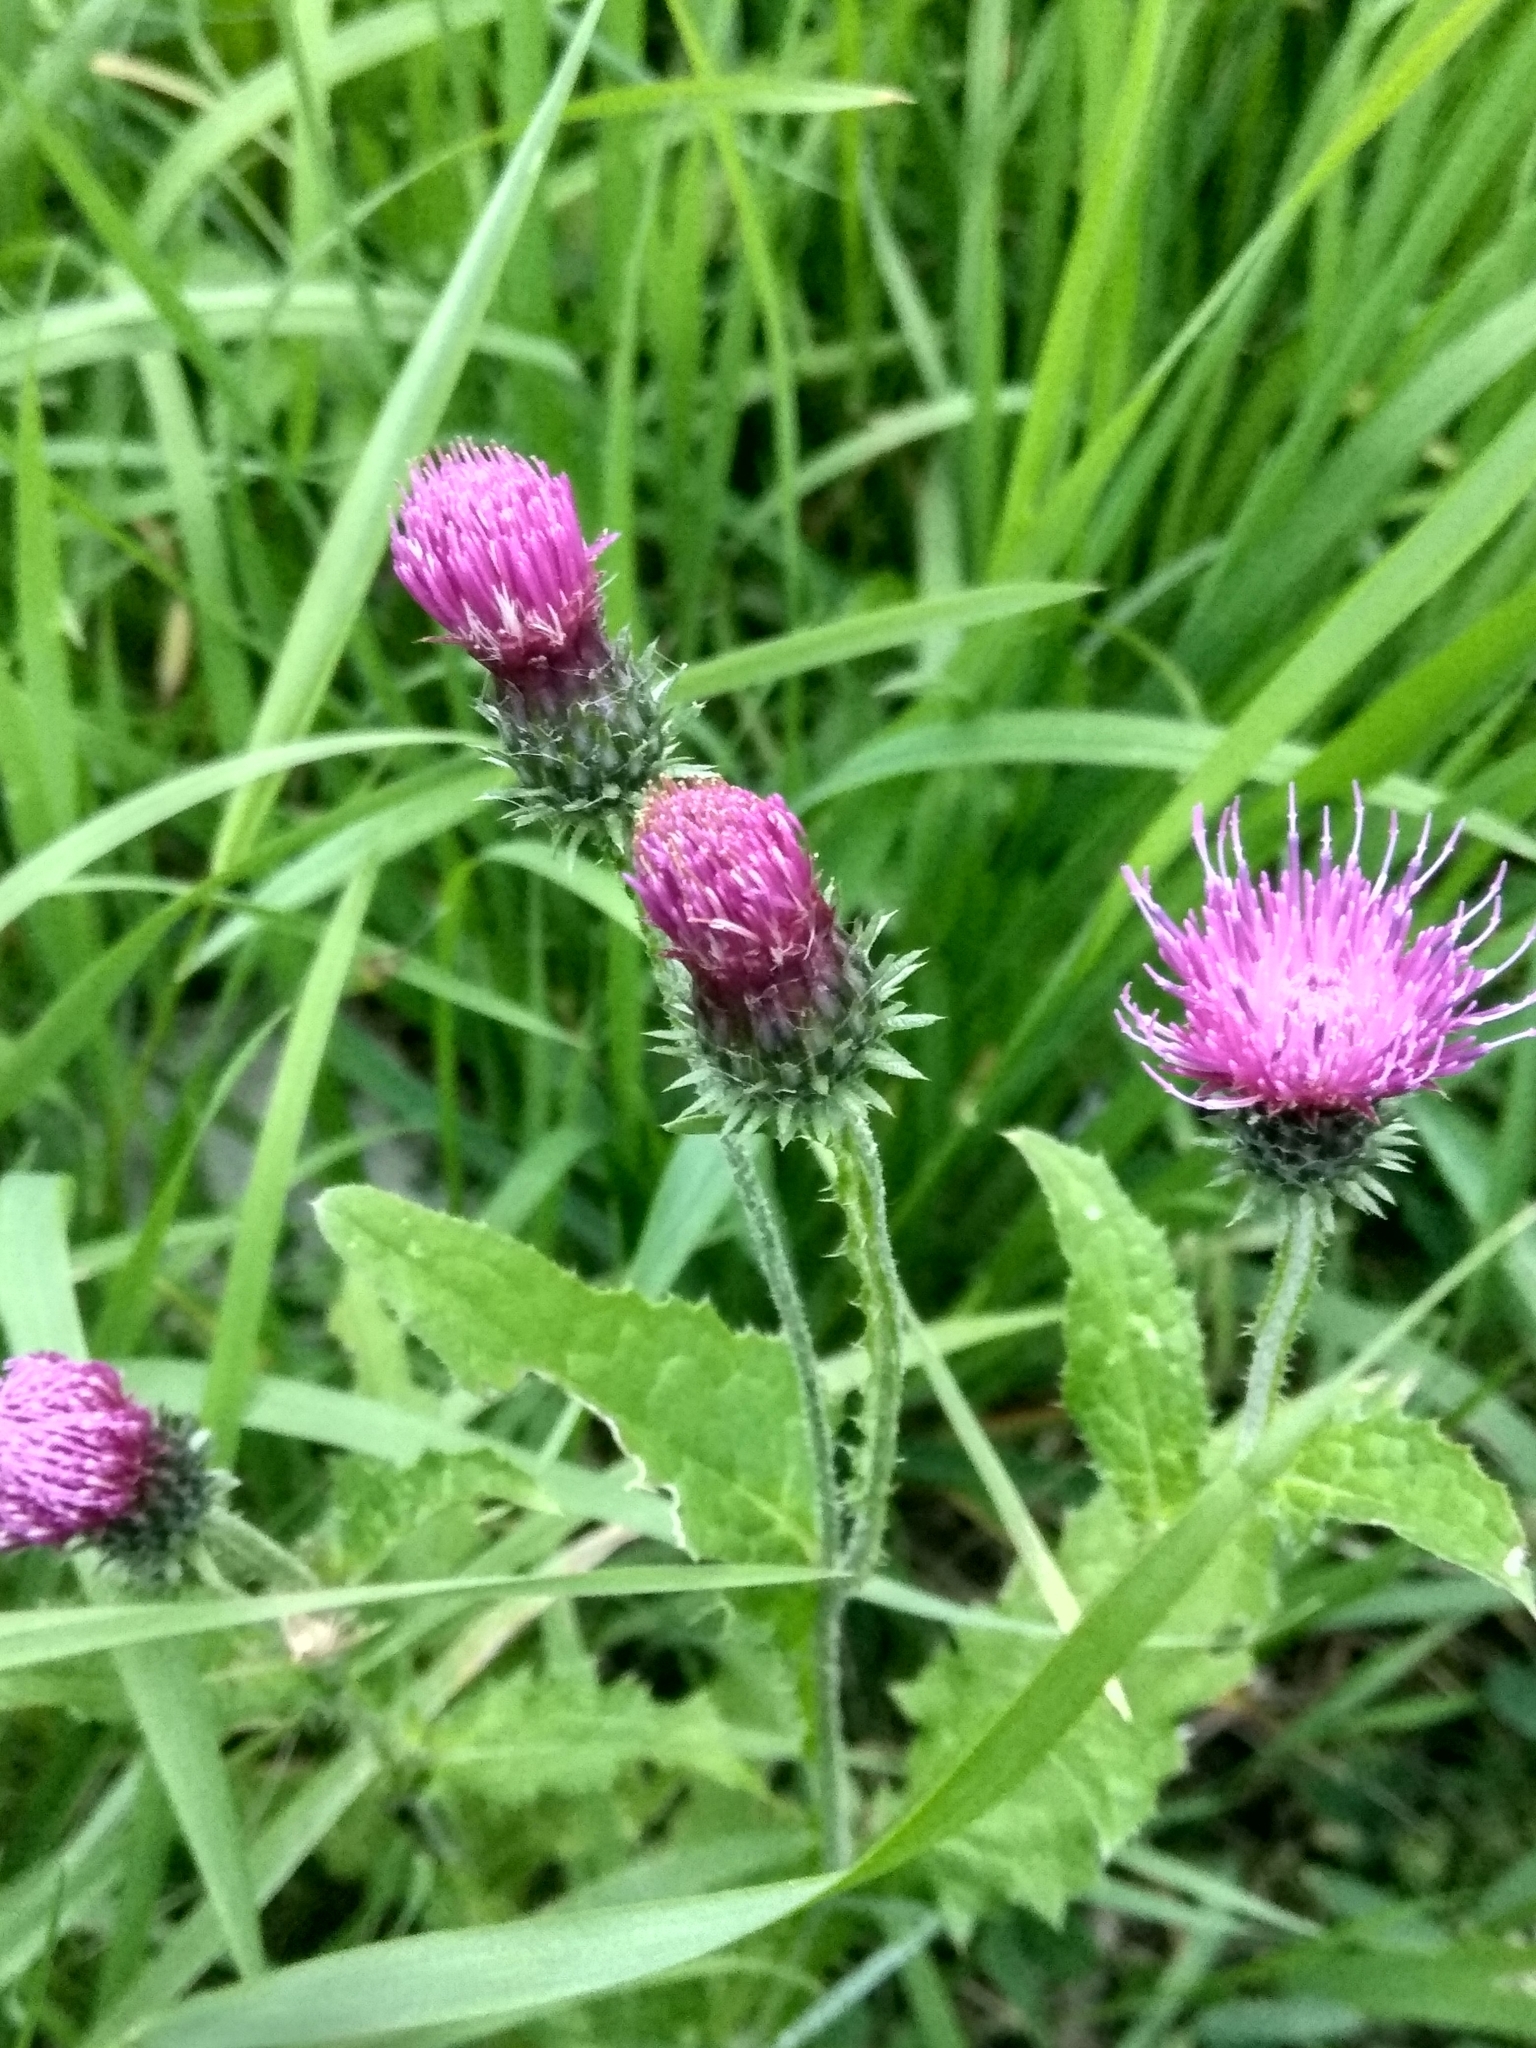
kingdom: Plantae
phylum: Tracheophyta
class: Magnoliopsida
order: Asterales
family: Asteraceae
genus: Carduus
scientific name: Carduus crispus
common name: Welted thistle
